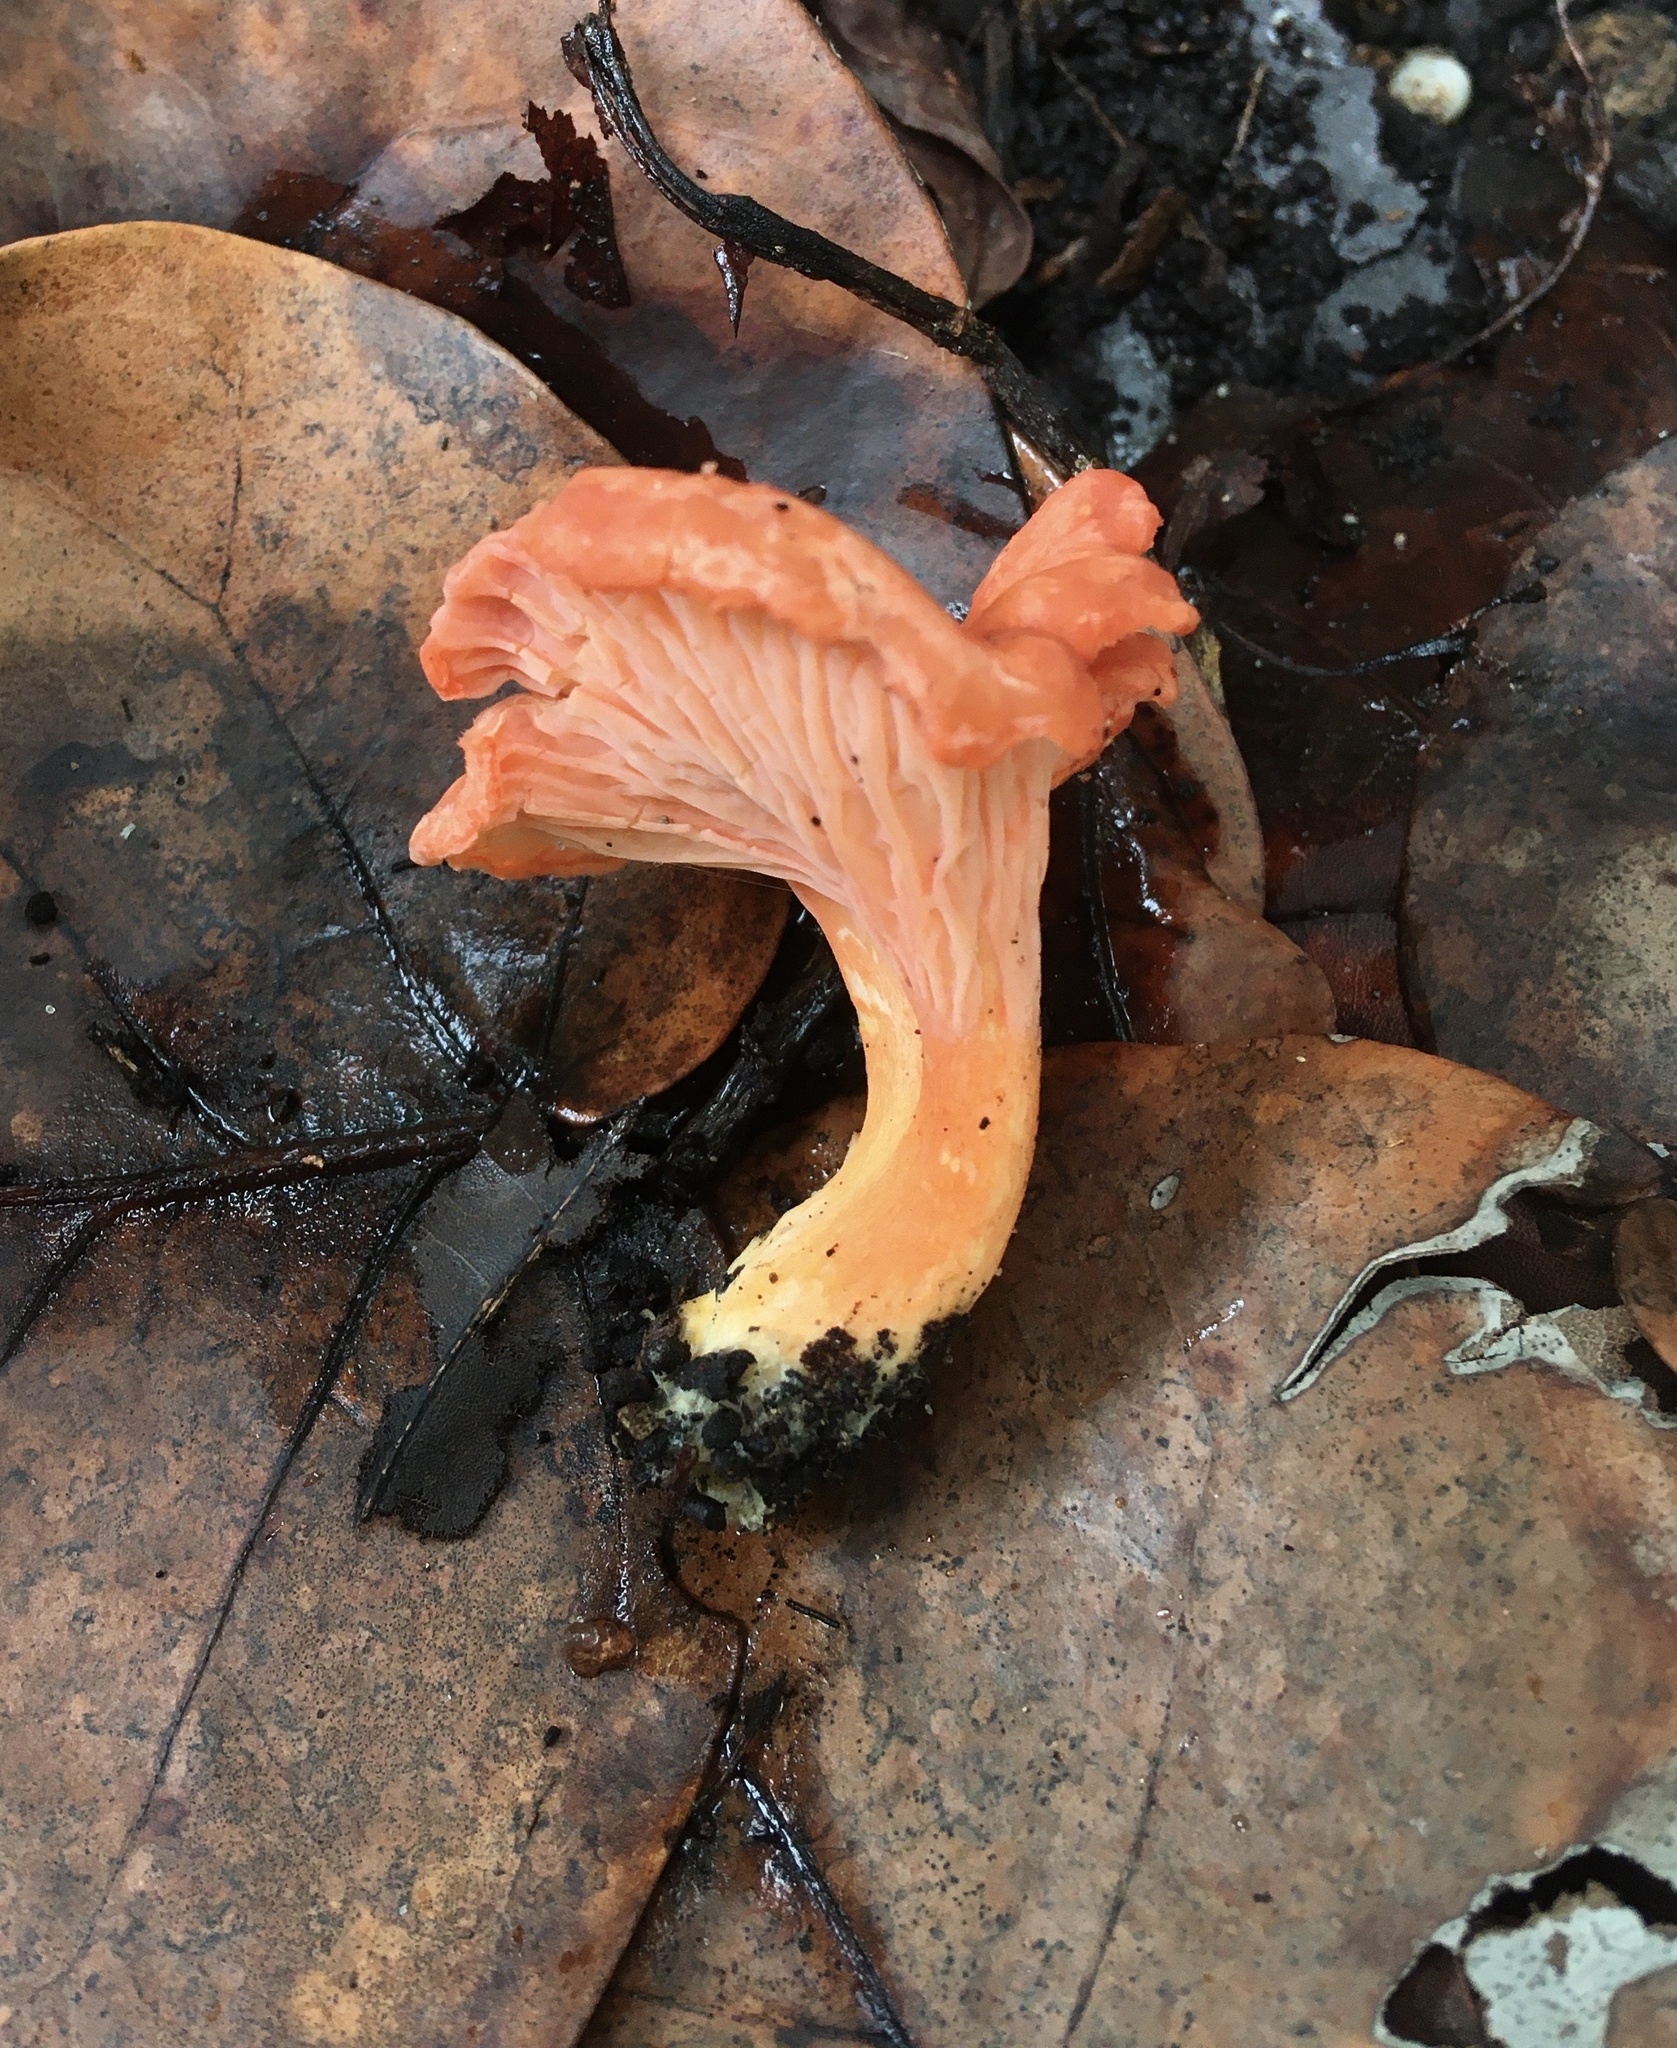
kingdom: Fungi
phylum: Basidiomycota
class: Agaricomycetes
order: Cantharellales
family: Hydnaceae
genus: Cantharellus
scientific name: Cantharellus coccolobae
